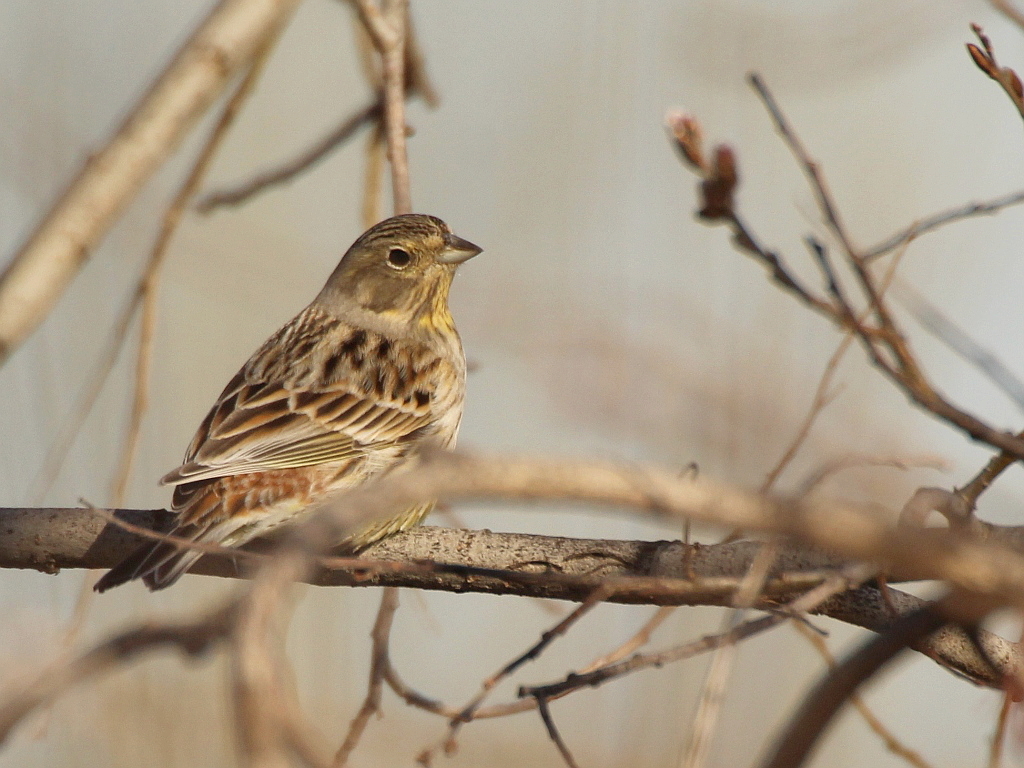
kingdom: Animalia
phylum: Chordata
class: Aves
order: Passeriformes
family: Emberizidae
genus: Emberiza
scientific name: Emberiza citrinella
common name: Yellowhammer
